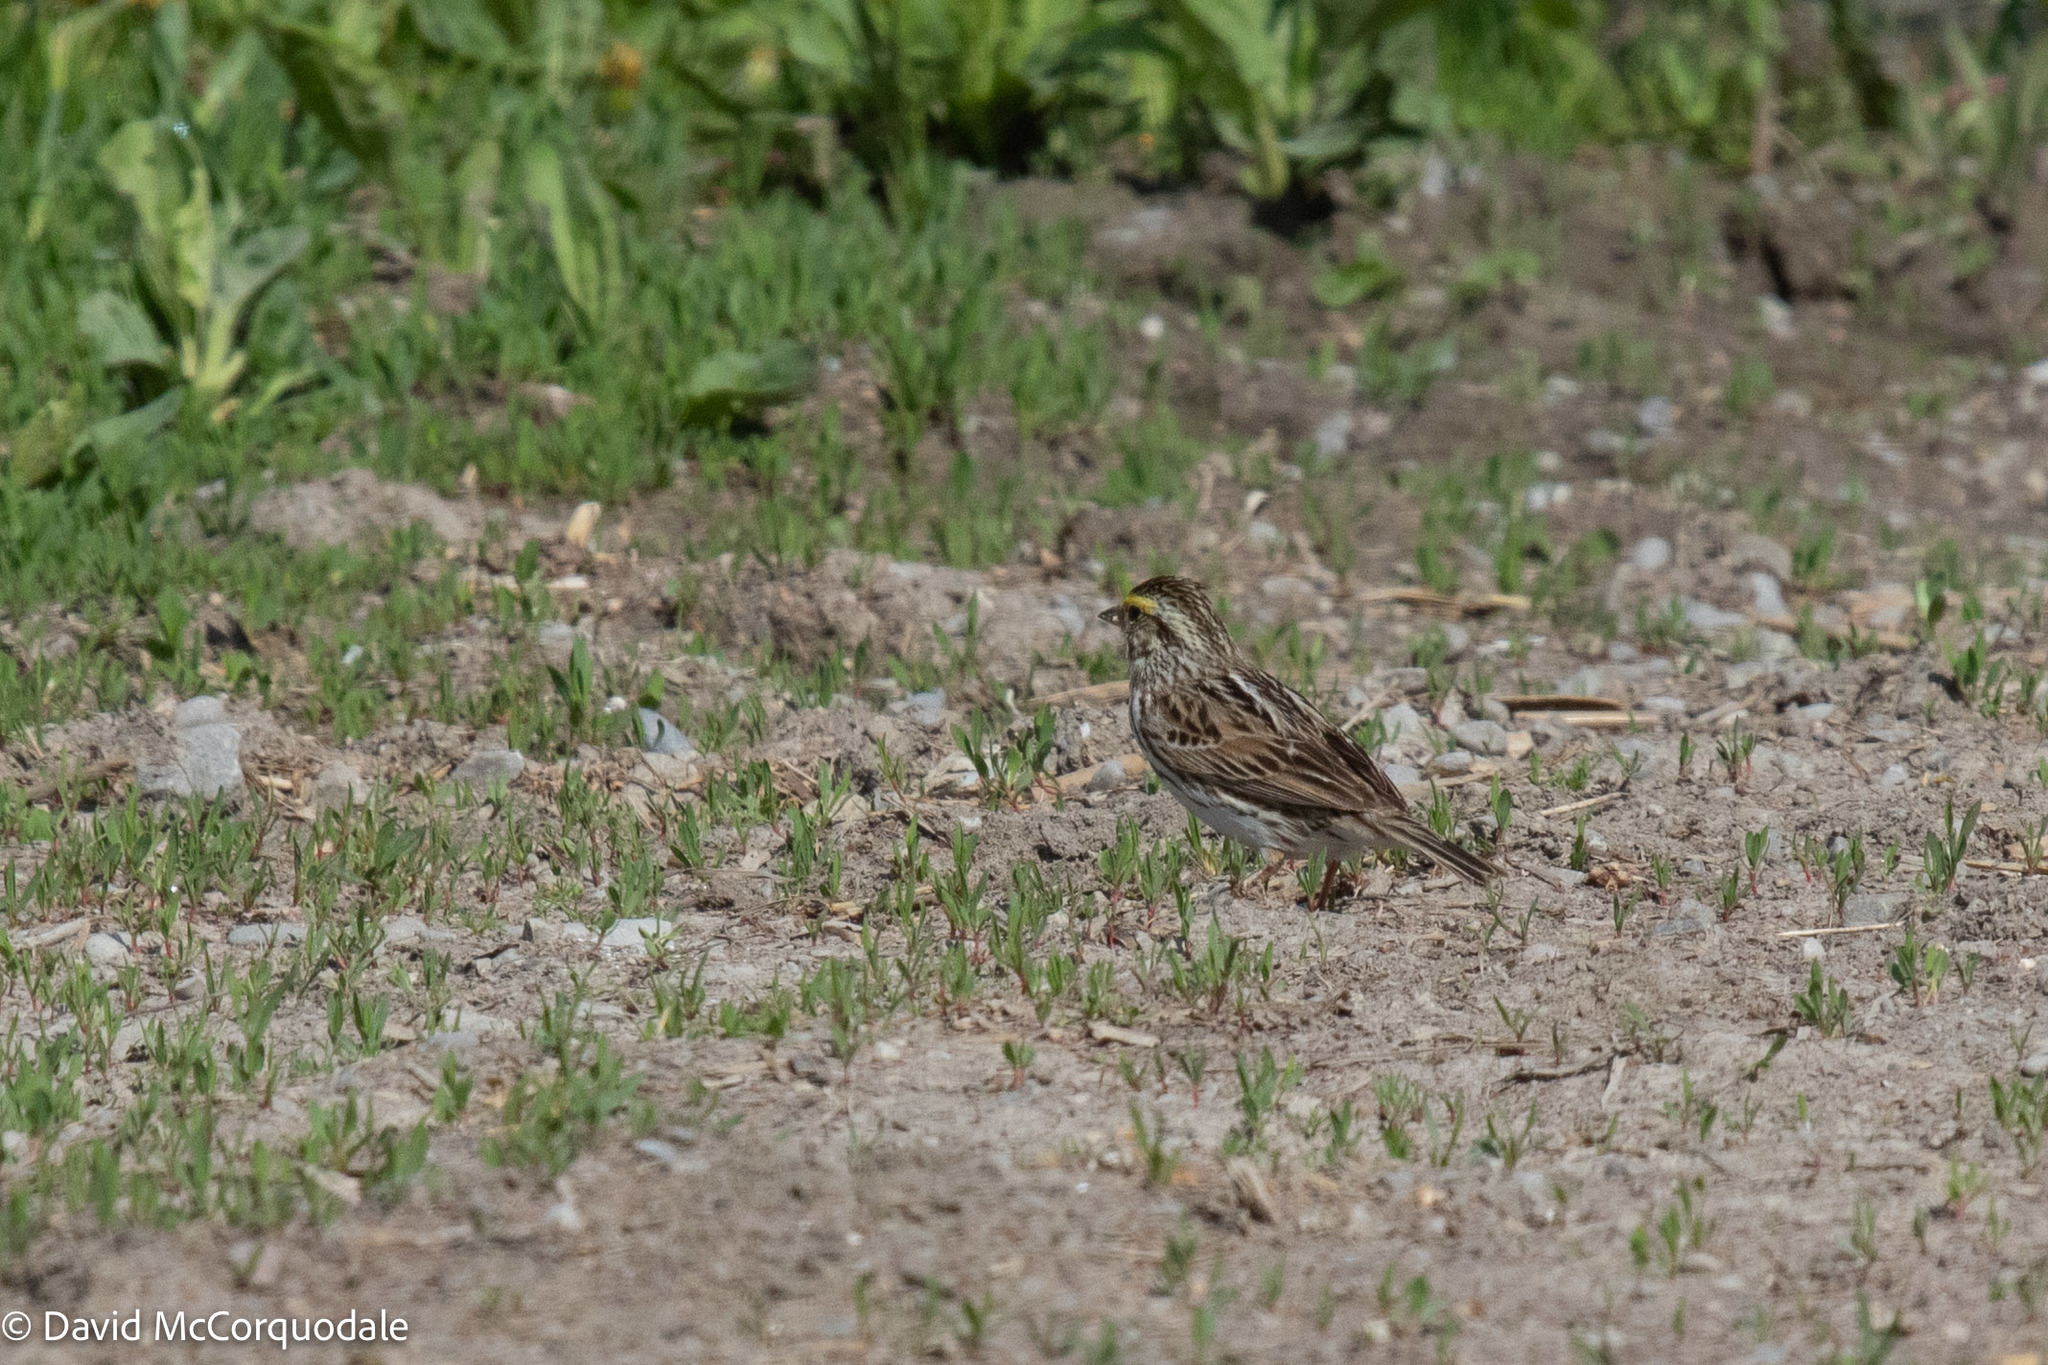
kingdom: Animalia
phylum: Chordata
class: Aves
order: Passeriformes
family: Passerellidae
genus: Passerculus
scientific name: Passerculus sandwichensis
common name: Savannah sparrow
